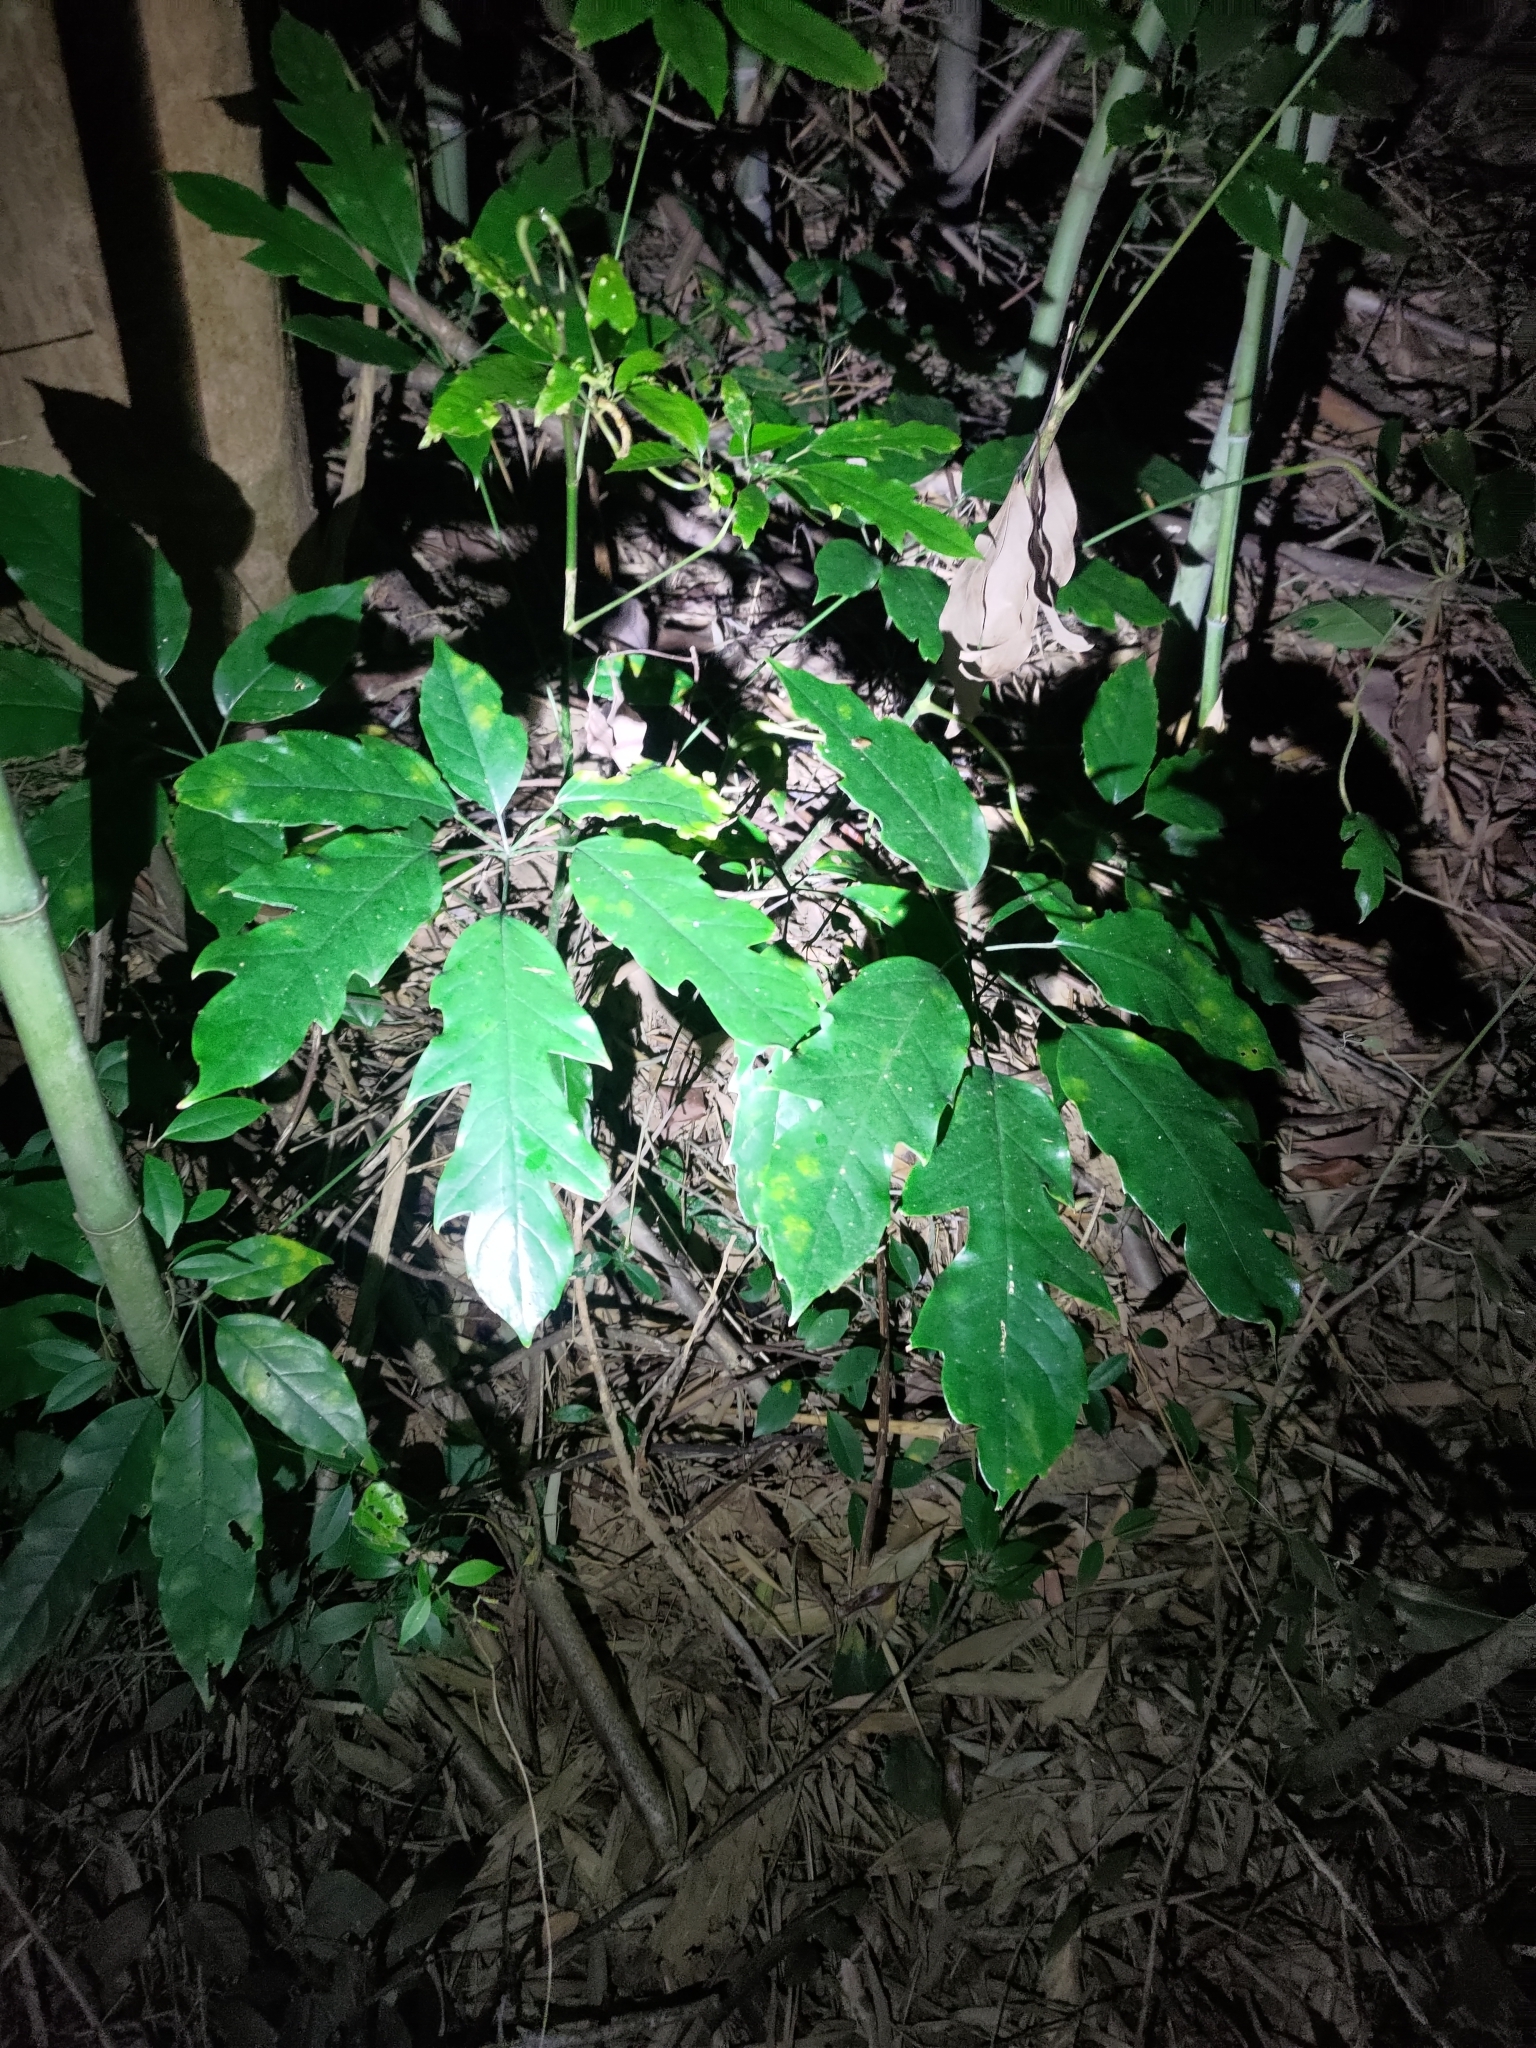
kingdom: Plantae
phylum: Tracheophyta
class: Magnoliopsida
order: Apiales
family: Araliaceae
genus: Heptapleurum
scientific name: Heptapleurum heptaphyllum
